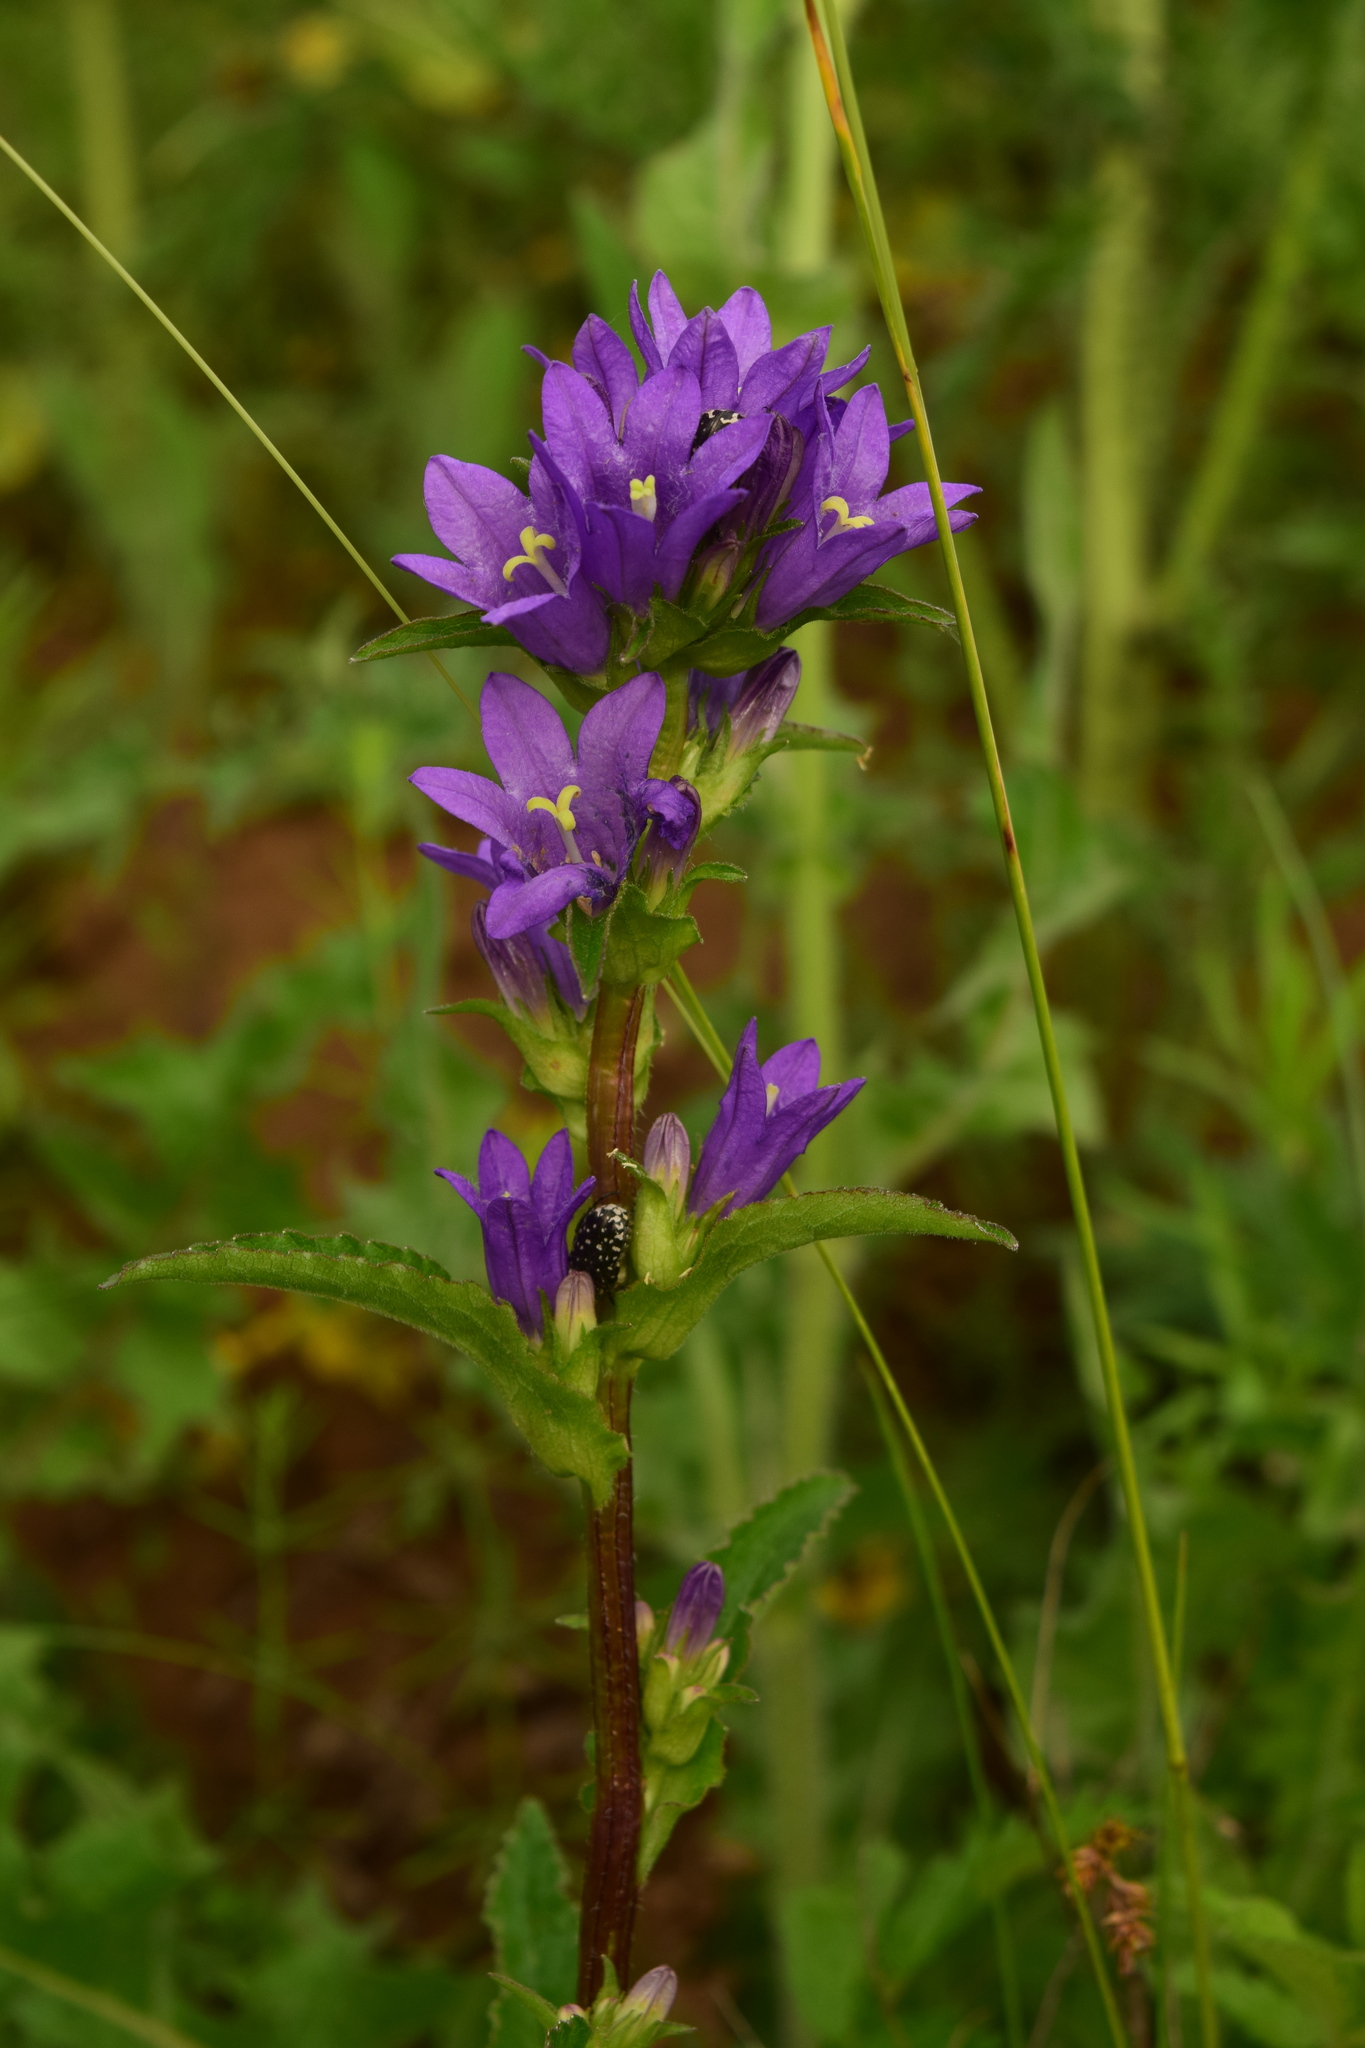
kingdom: Plantae
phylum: Tracheophyta
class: Magnoliopsida
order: Asterales
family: Campanulaceae
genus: Campanula
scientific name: Campanula glomerata
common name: Clustered bellflower
